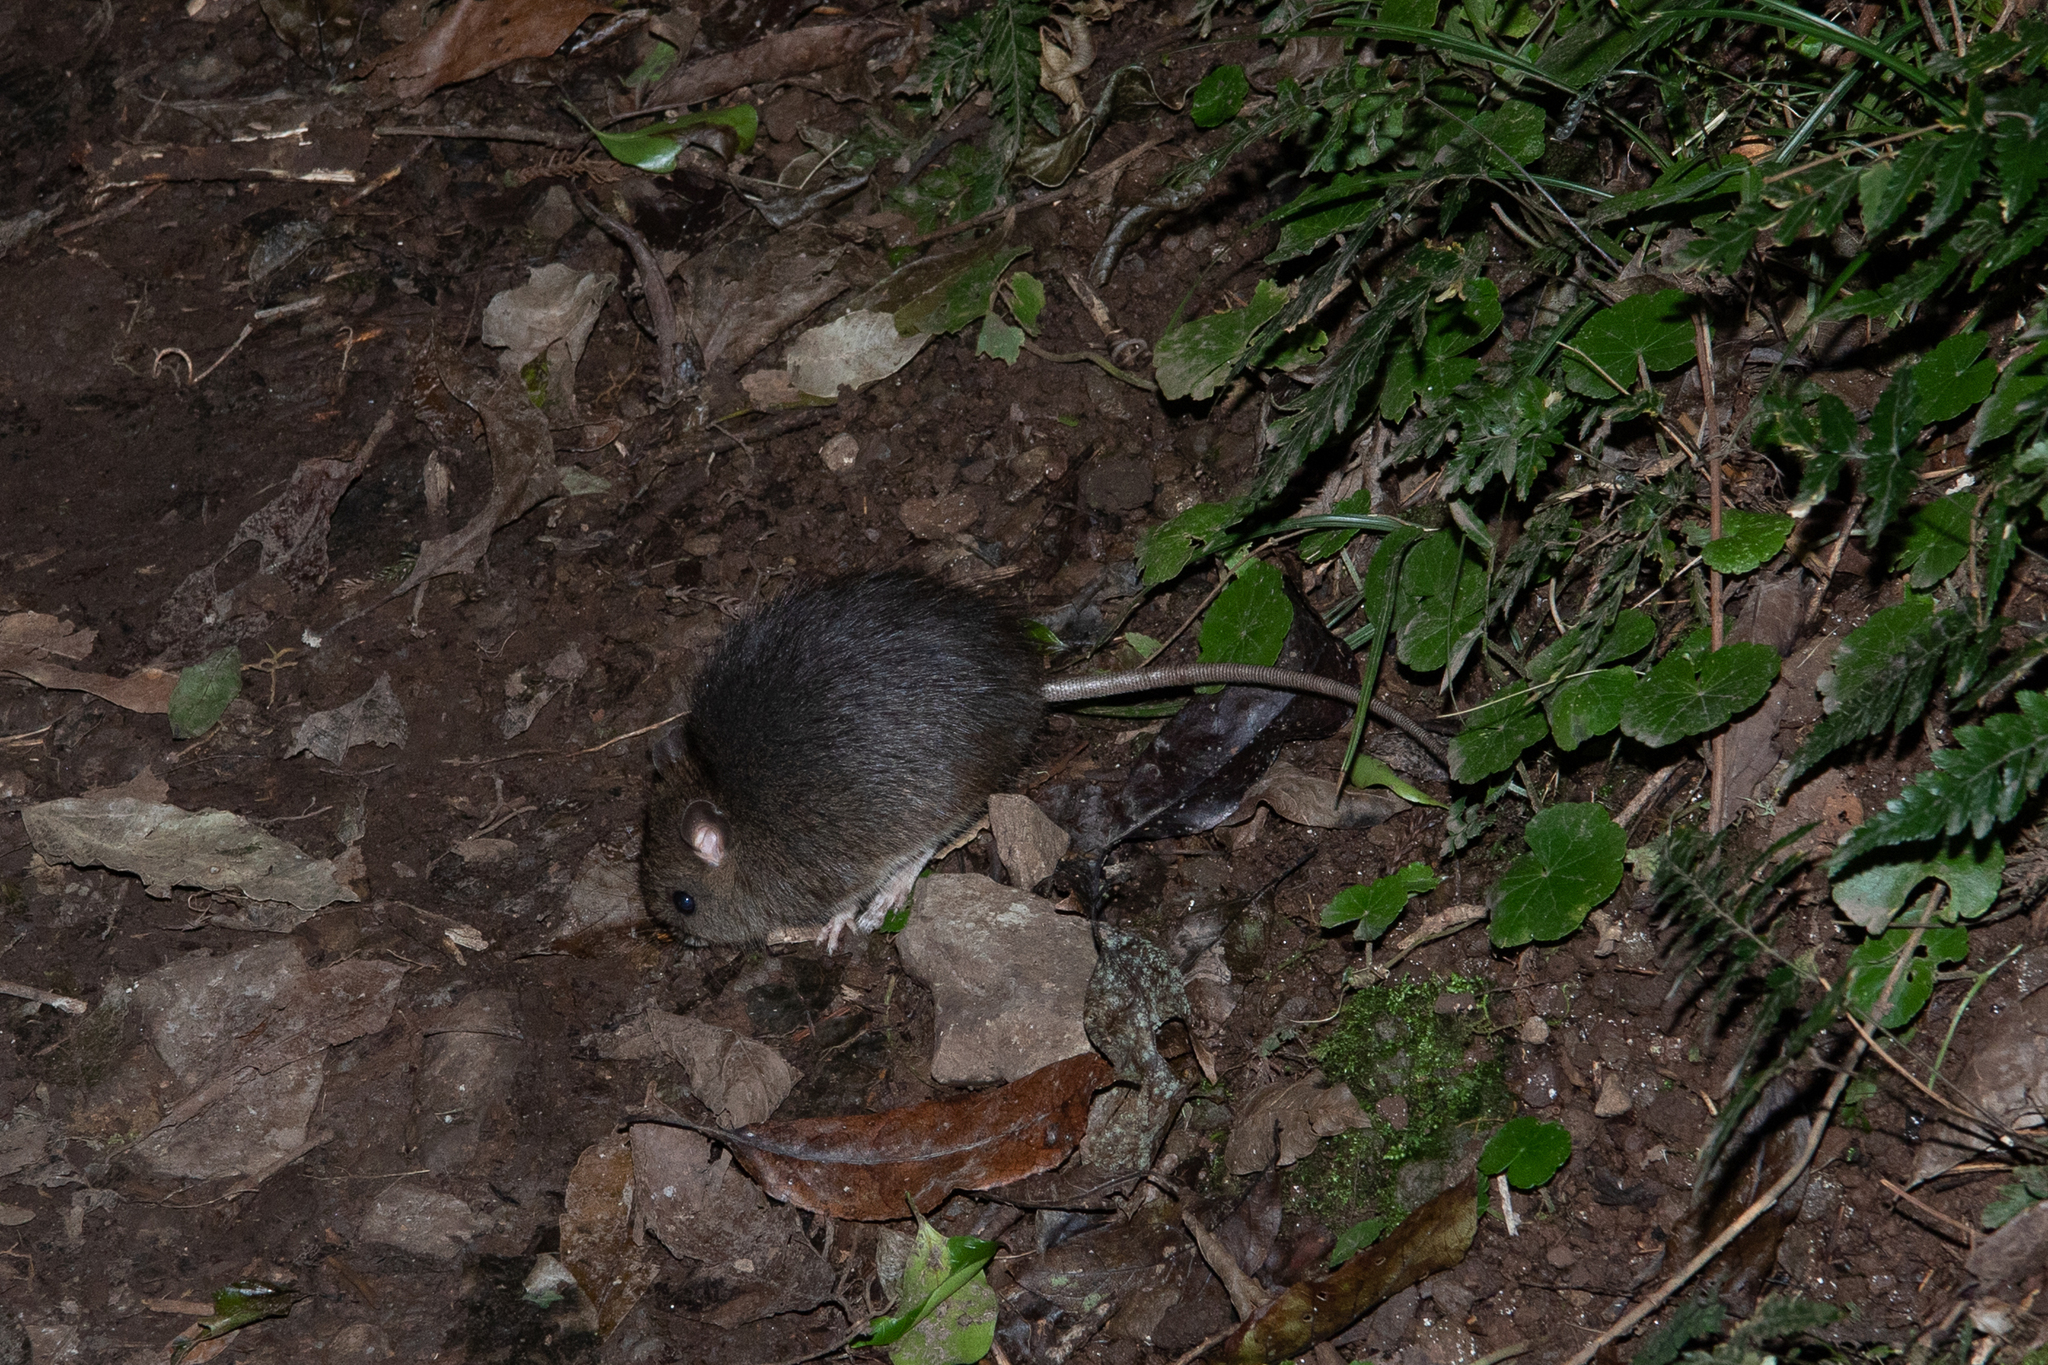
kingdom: Animalia
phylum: Chordata
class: Mammalia
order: Rodentia
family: Muridae
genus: Rattus
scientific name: Rattus fuscipes
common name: Australian bush rat
